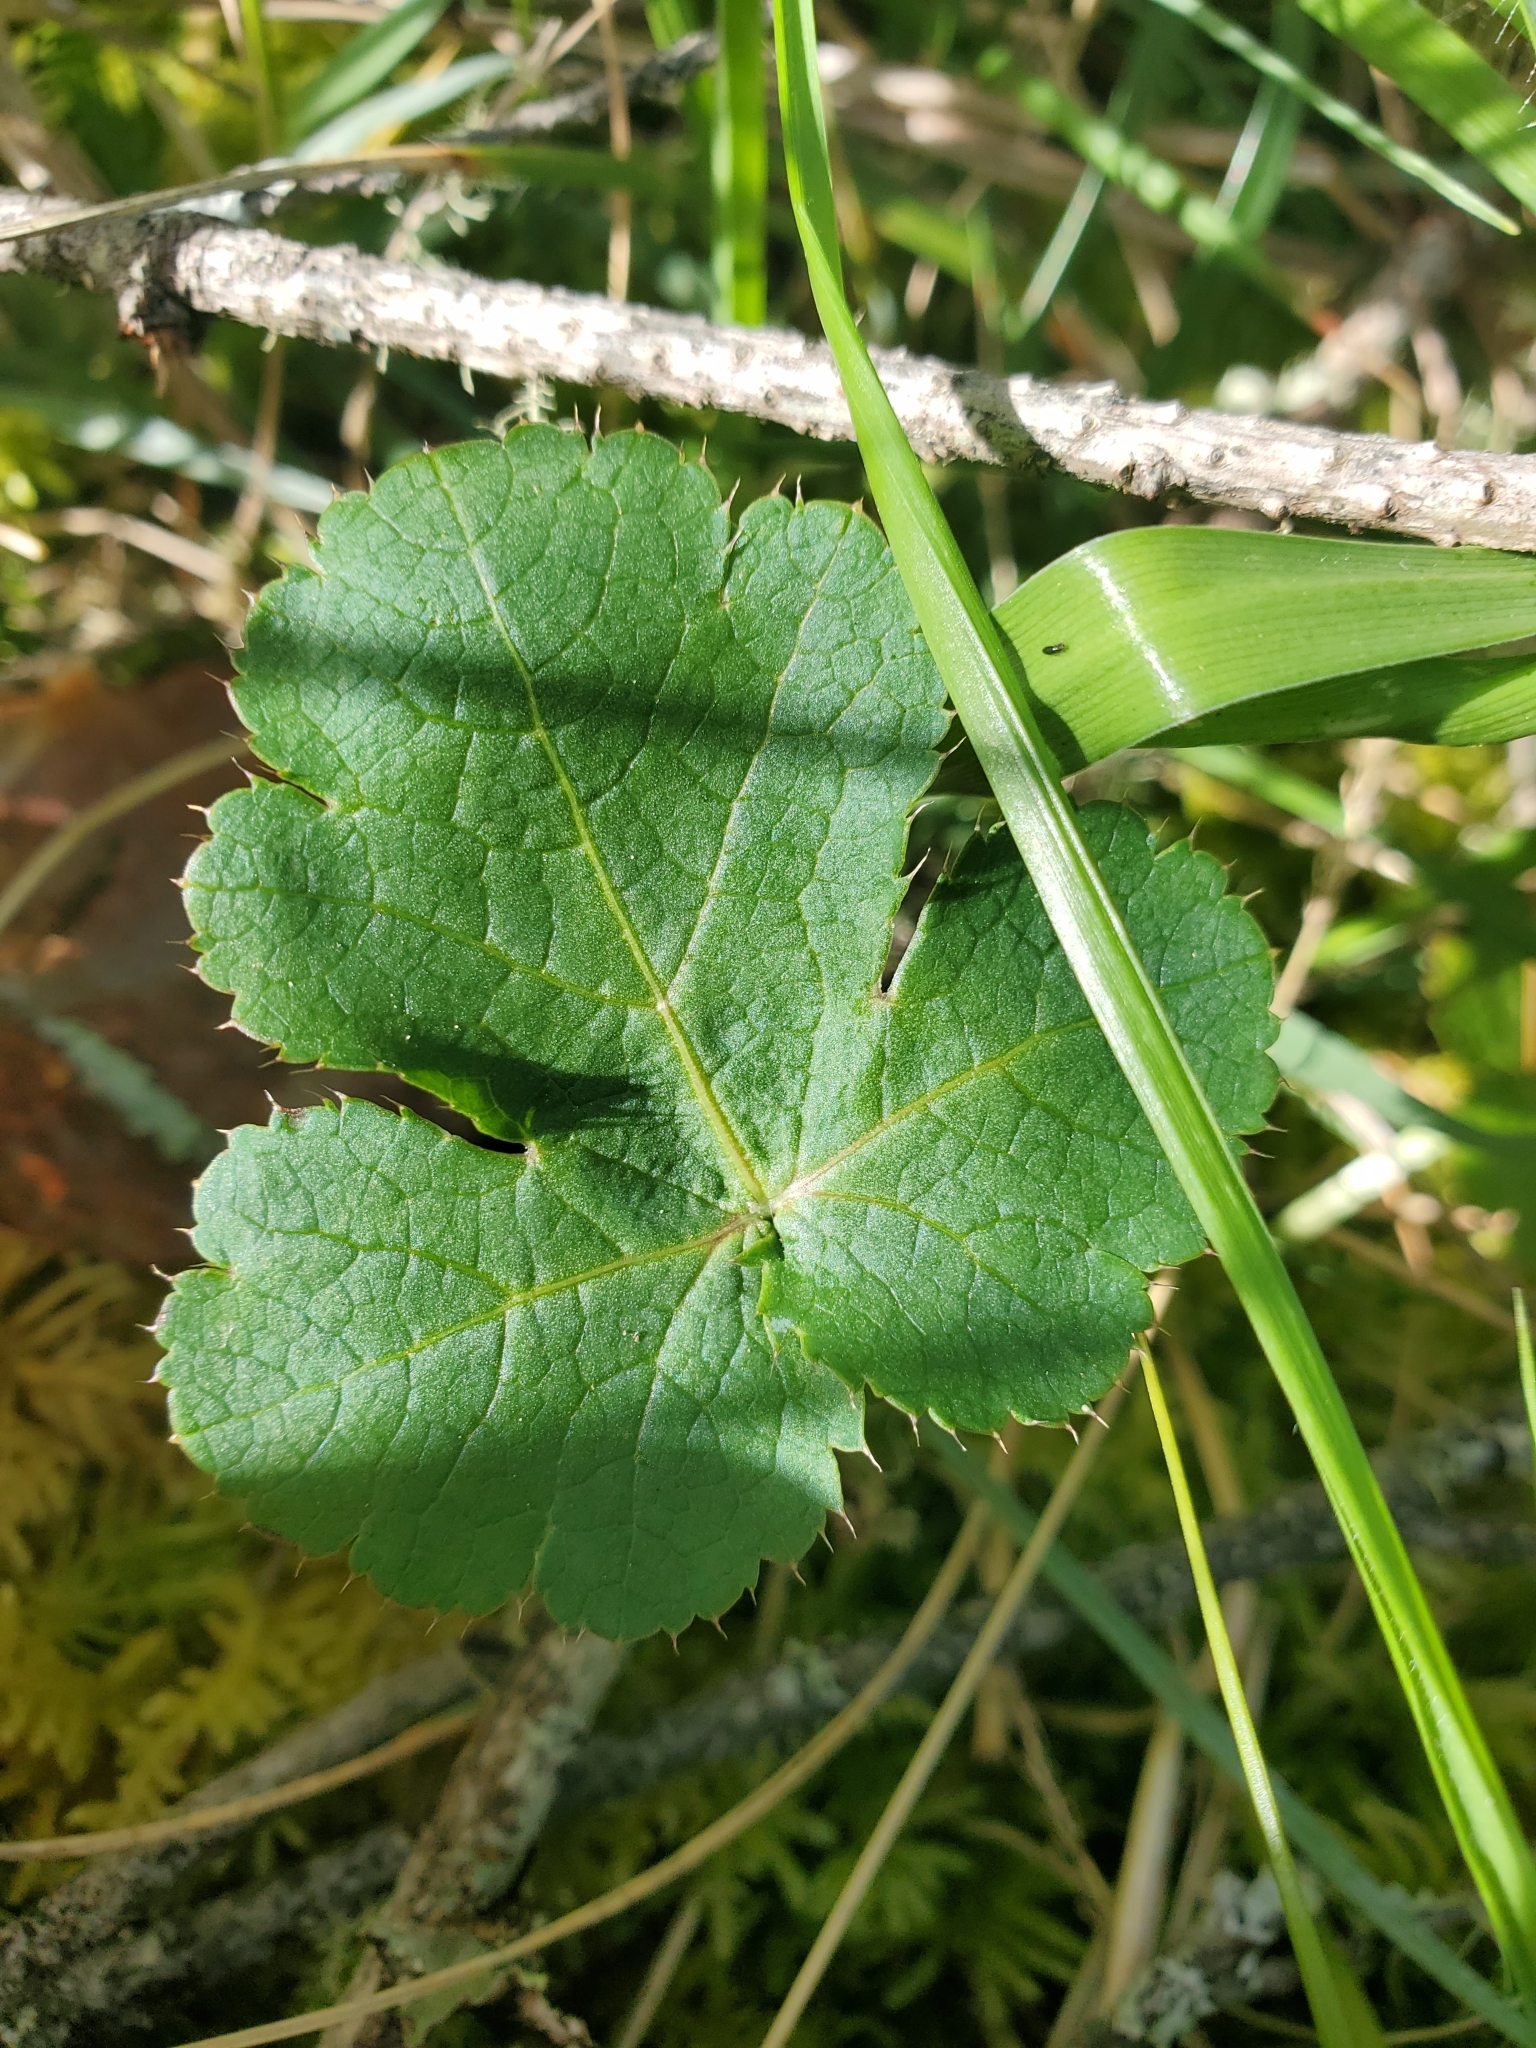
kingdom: Plantae
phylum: Tracheophyta
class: Magnoliopsida
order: Apiales
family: Apiaceae
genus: Sanicula
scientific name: Sanicula crassicaulis
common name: Western snakeroot
